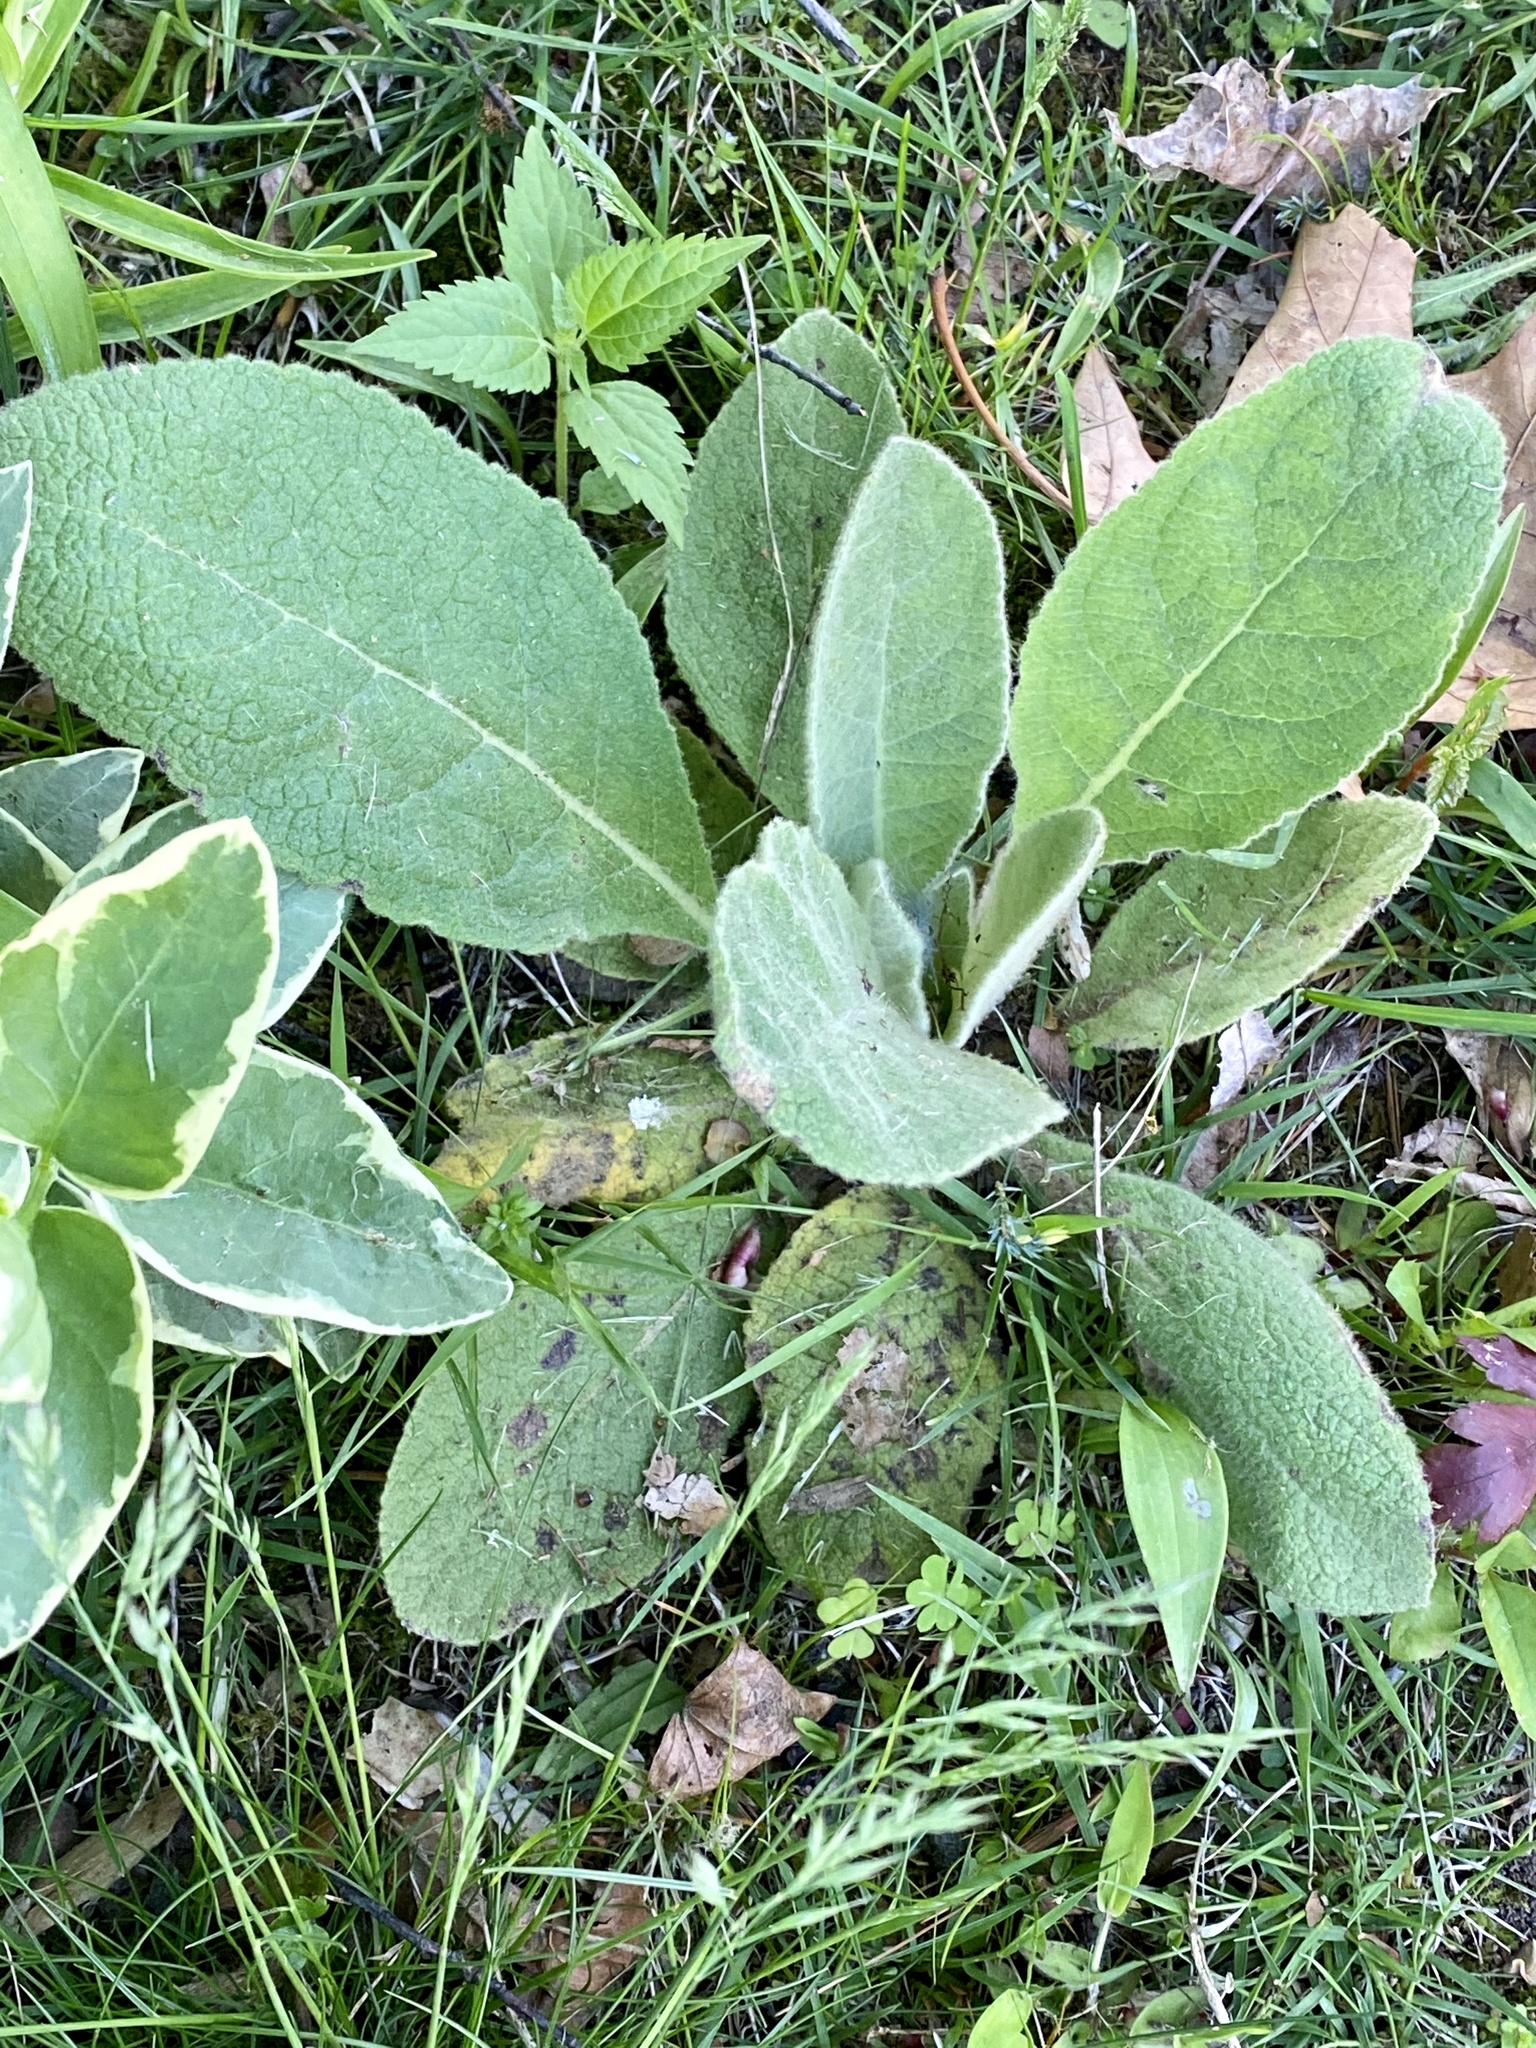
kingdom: Plantae
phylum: Tracheophyta
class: Magnoliopsida
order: Lamiales
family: Scrophulariaceae
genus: Verbascum
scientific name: Verbascum thapsus
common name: Common mullein
